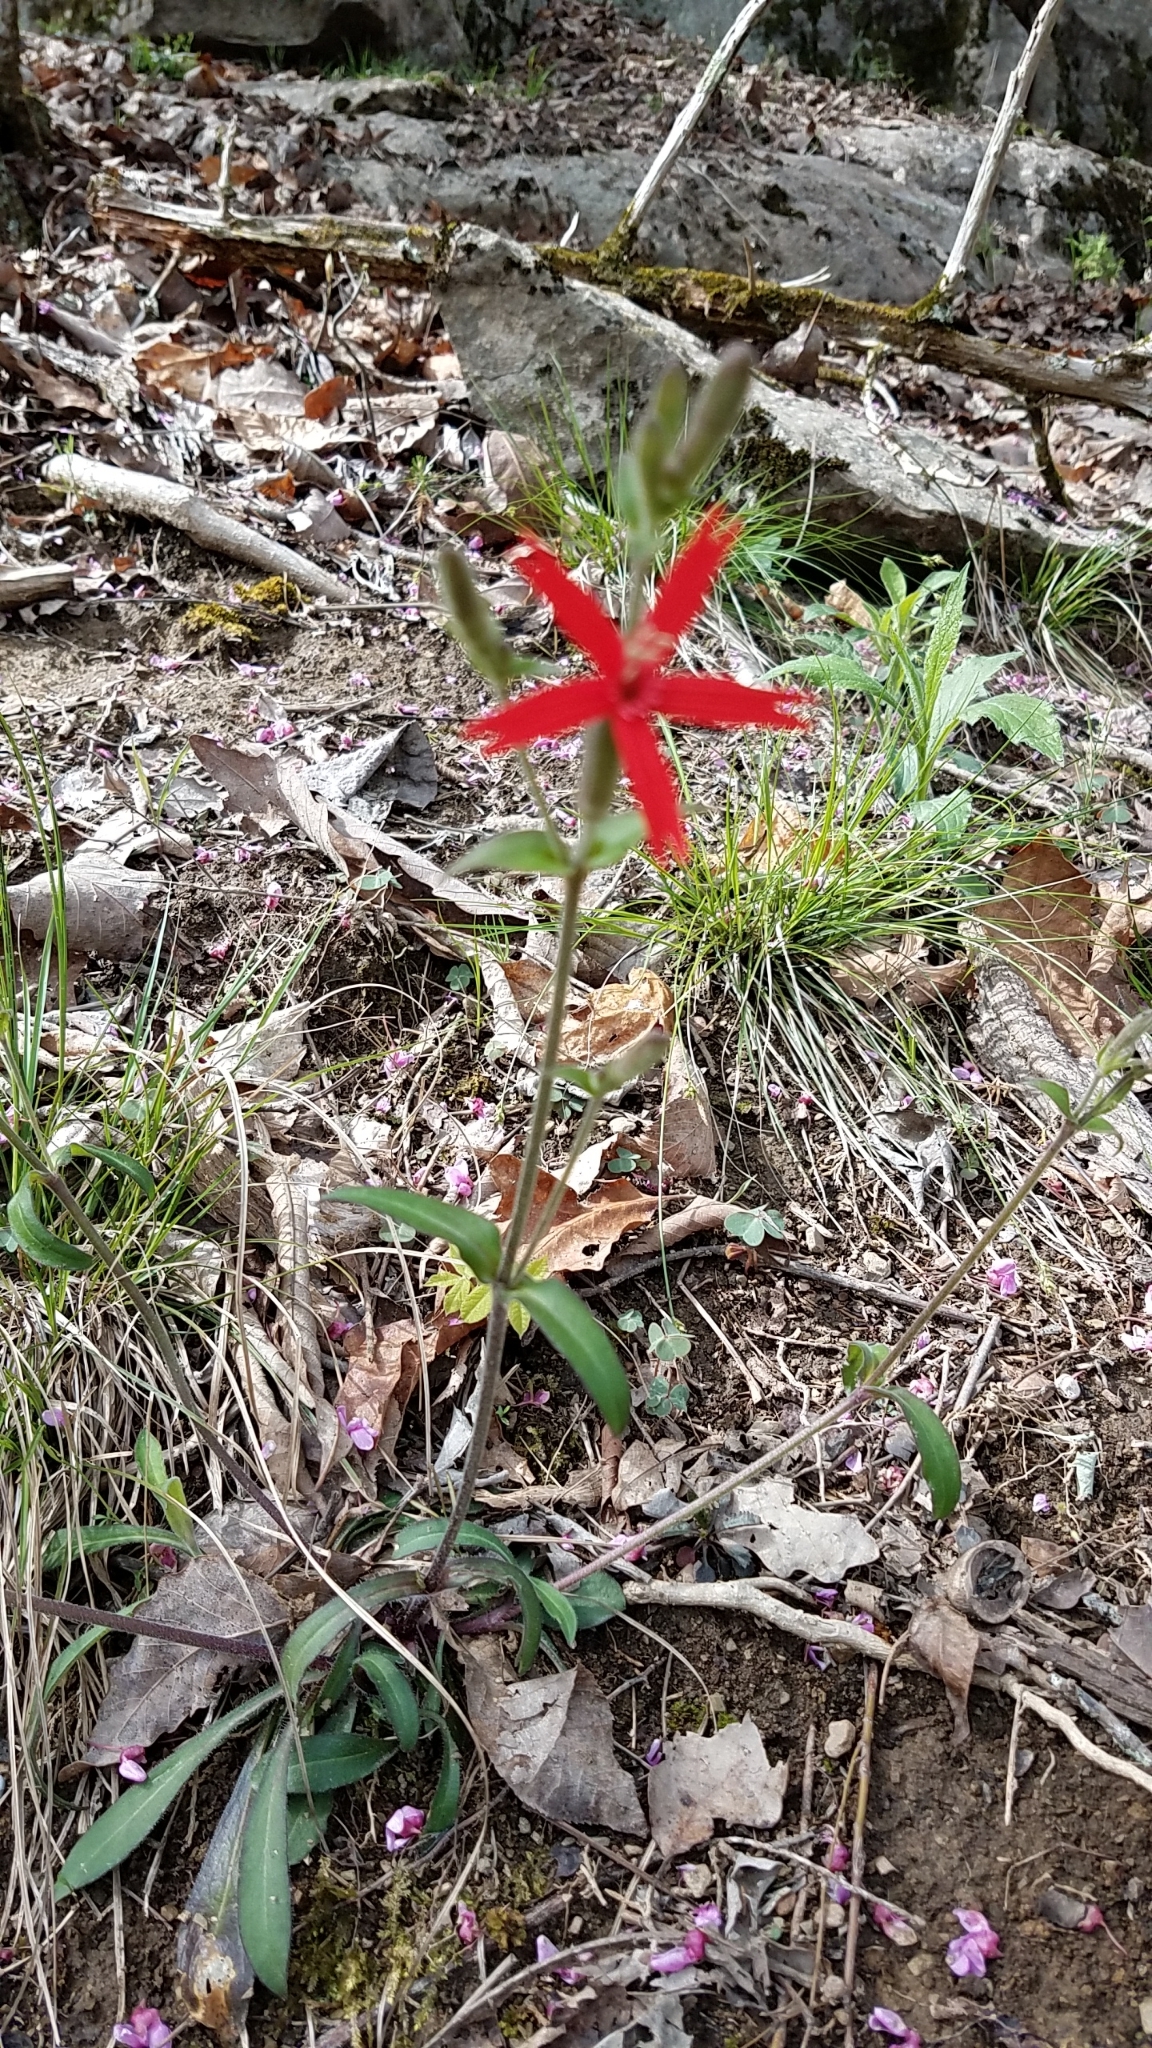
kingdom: Plantae
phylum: Tracheophyta
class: Magnoliopsida
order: Caryophyllales
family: Caryophyllaceae
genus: Silene
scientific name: Silene virginica
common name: Fire-pink
